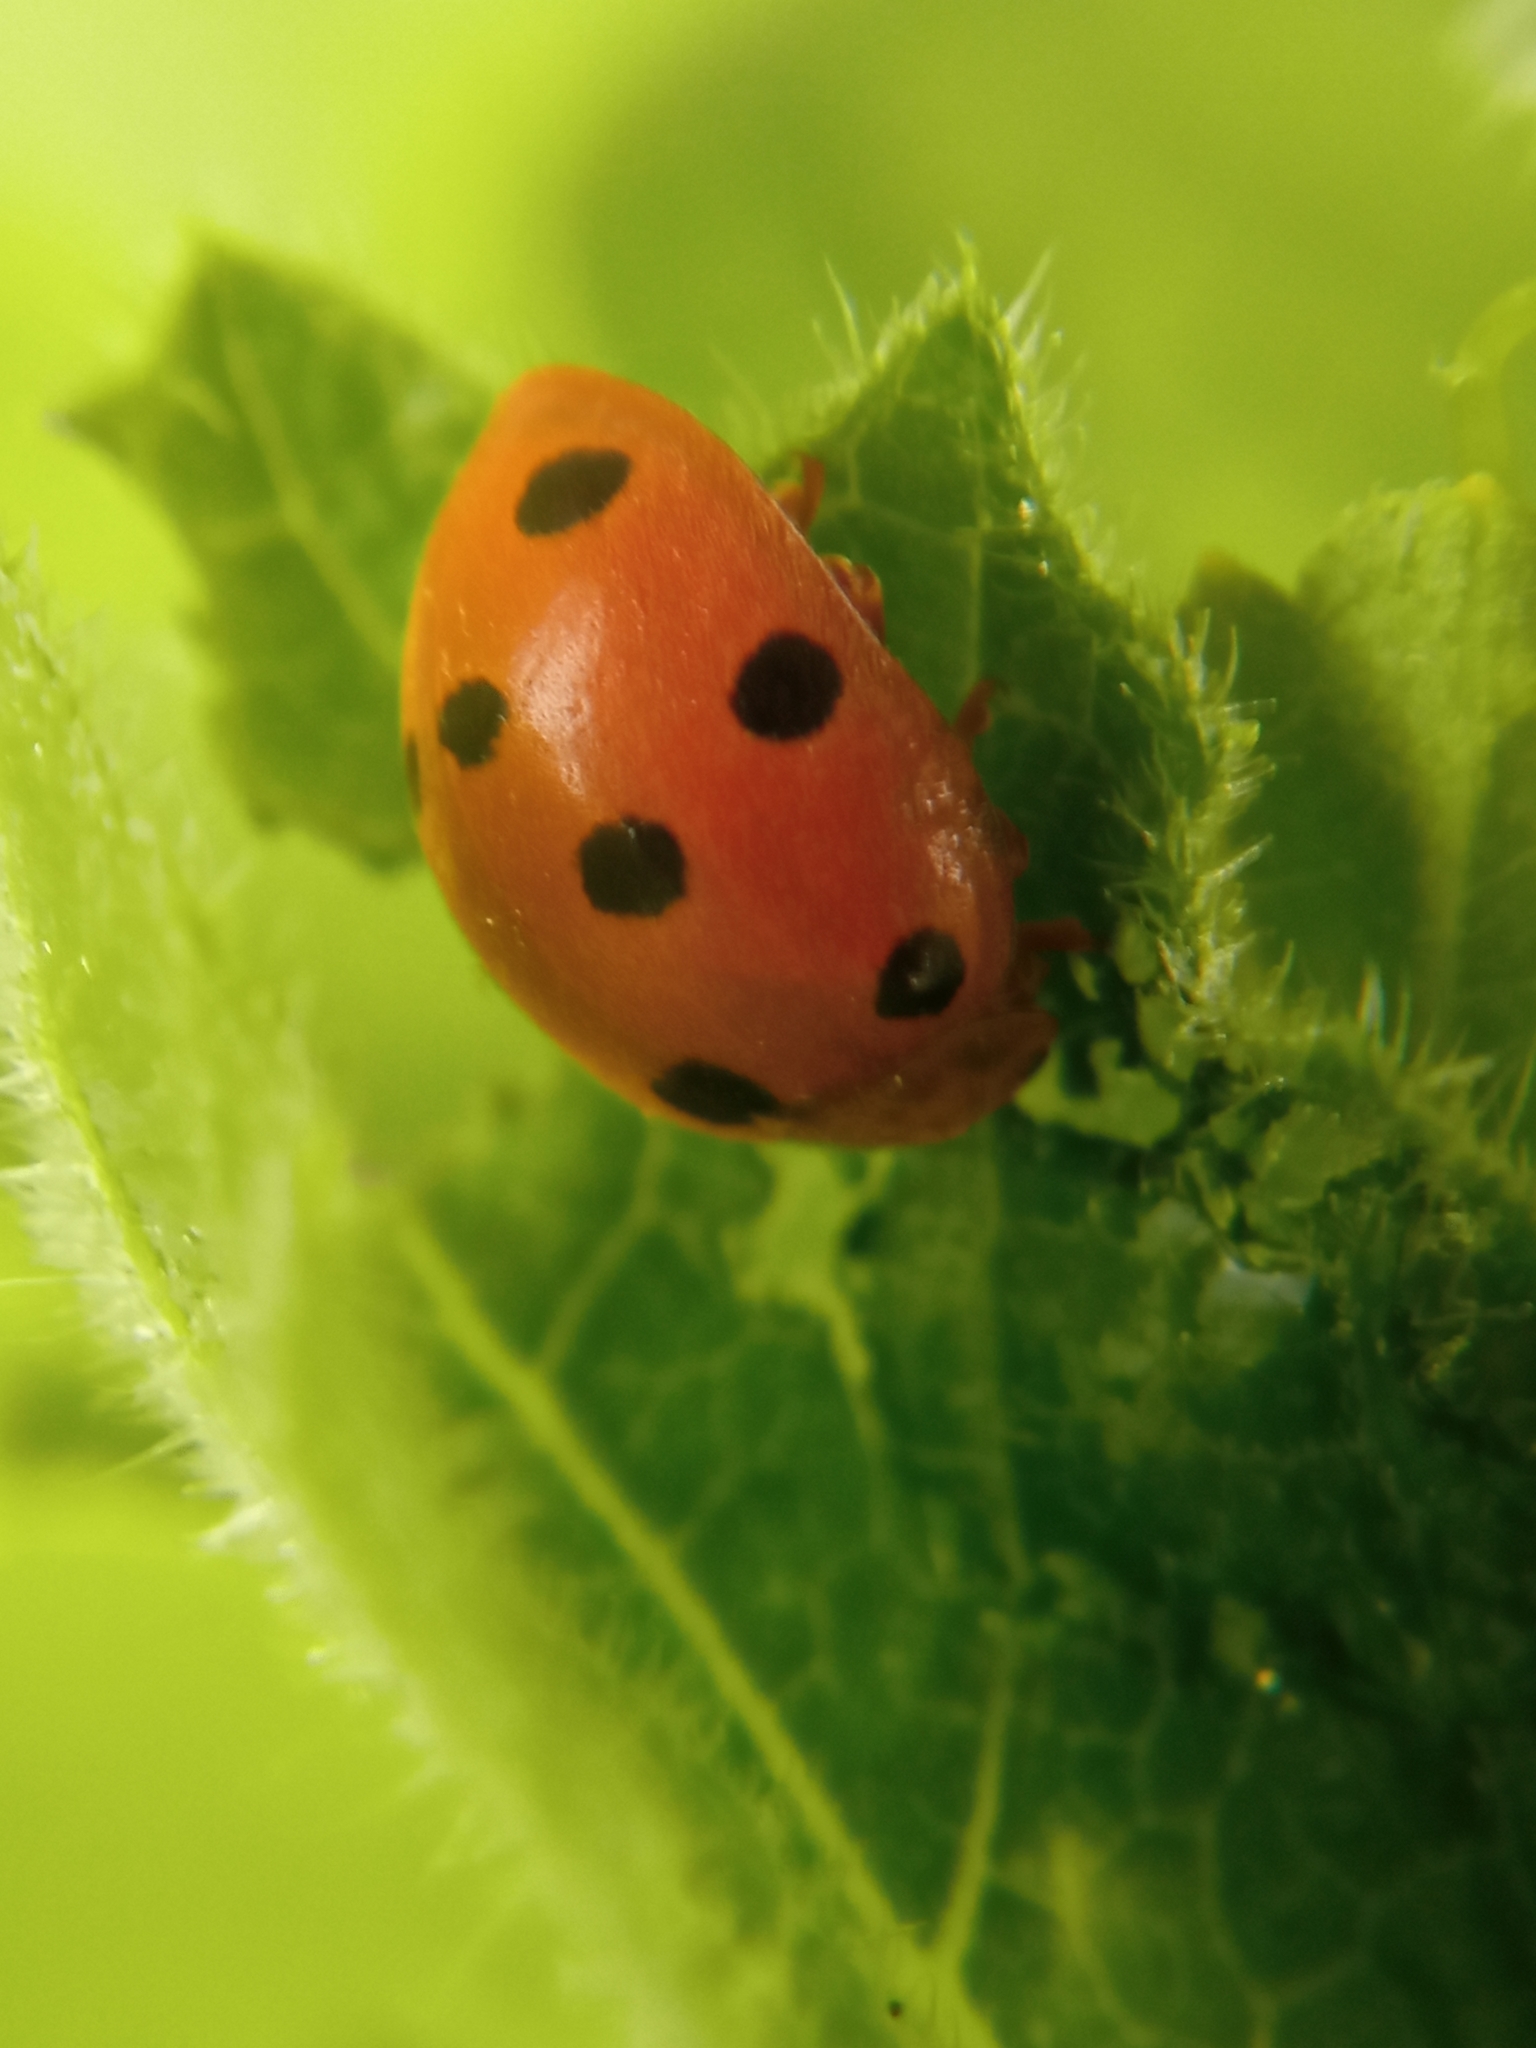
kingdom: Animalia
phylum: Arthropoda
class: Insecta
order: Coleoptera
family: Coccinellidae
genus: Henosepilachna
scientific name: Henosepilachna argus
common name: Bryony ladybird
